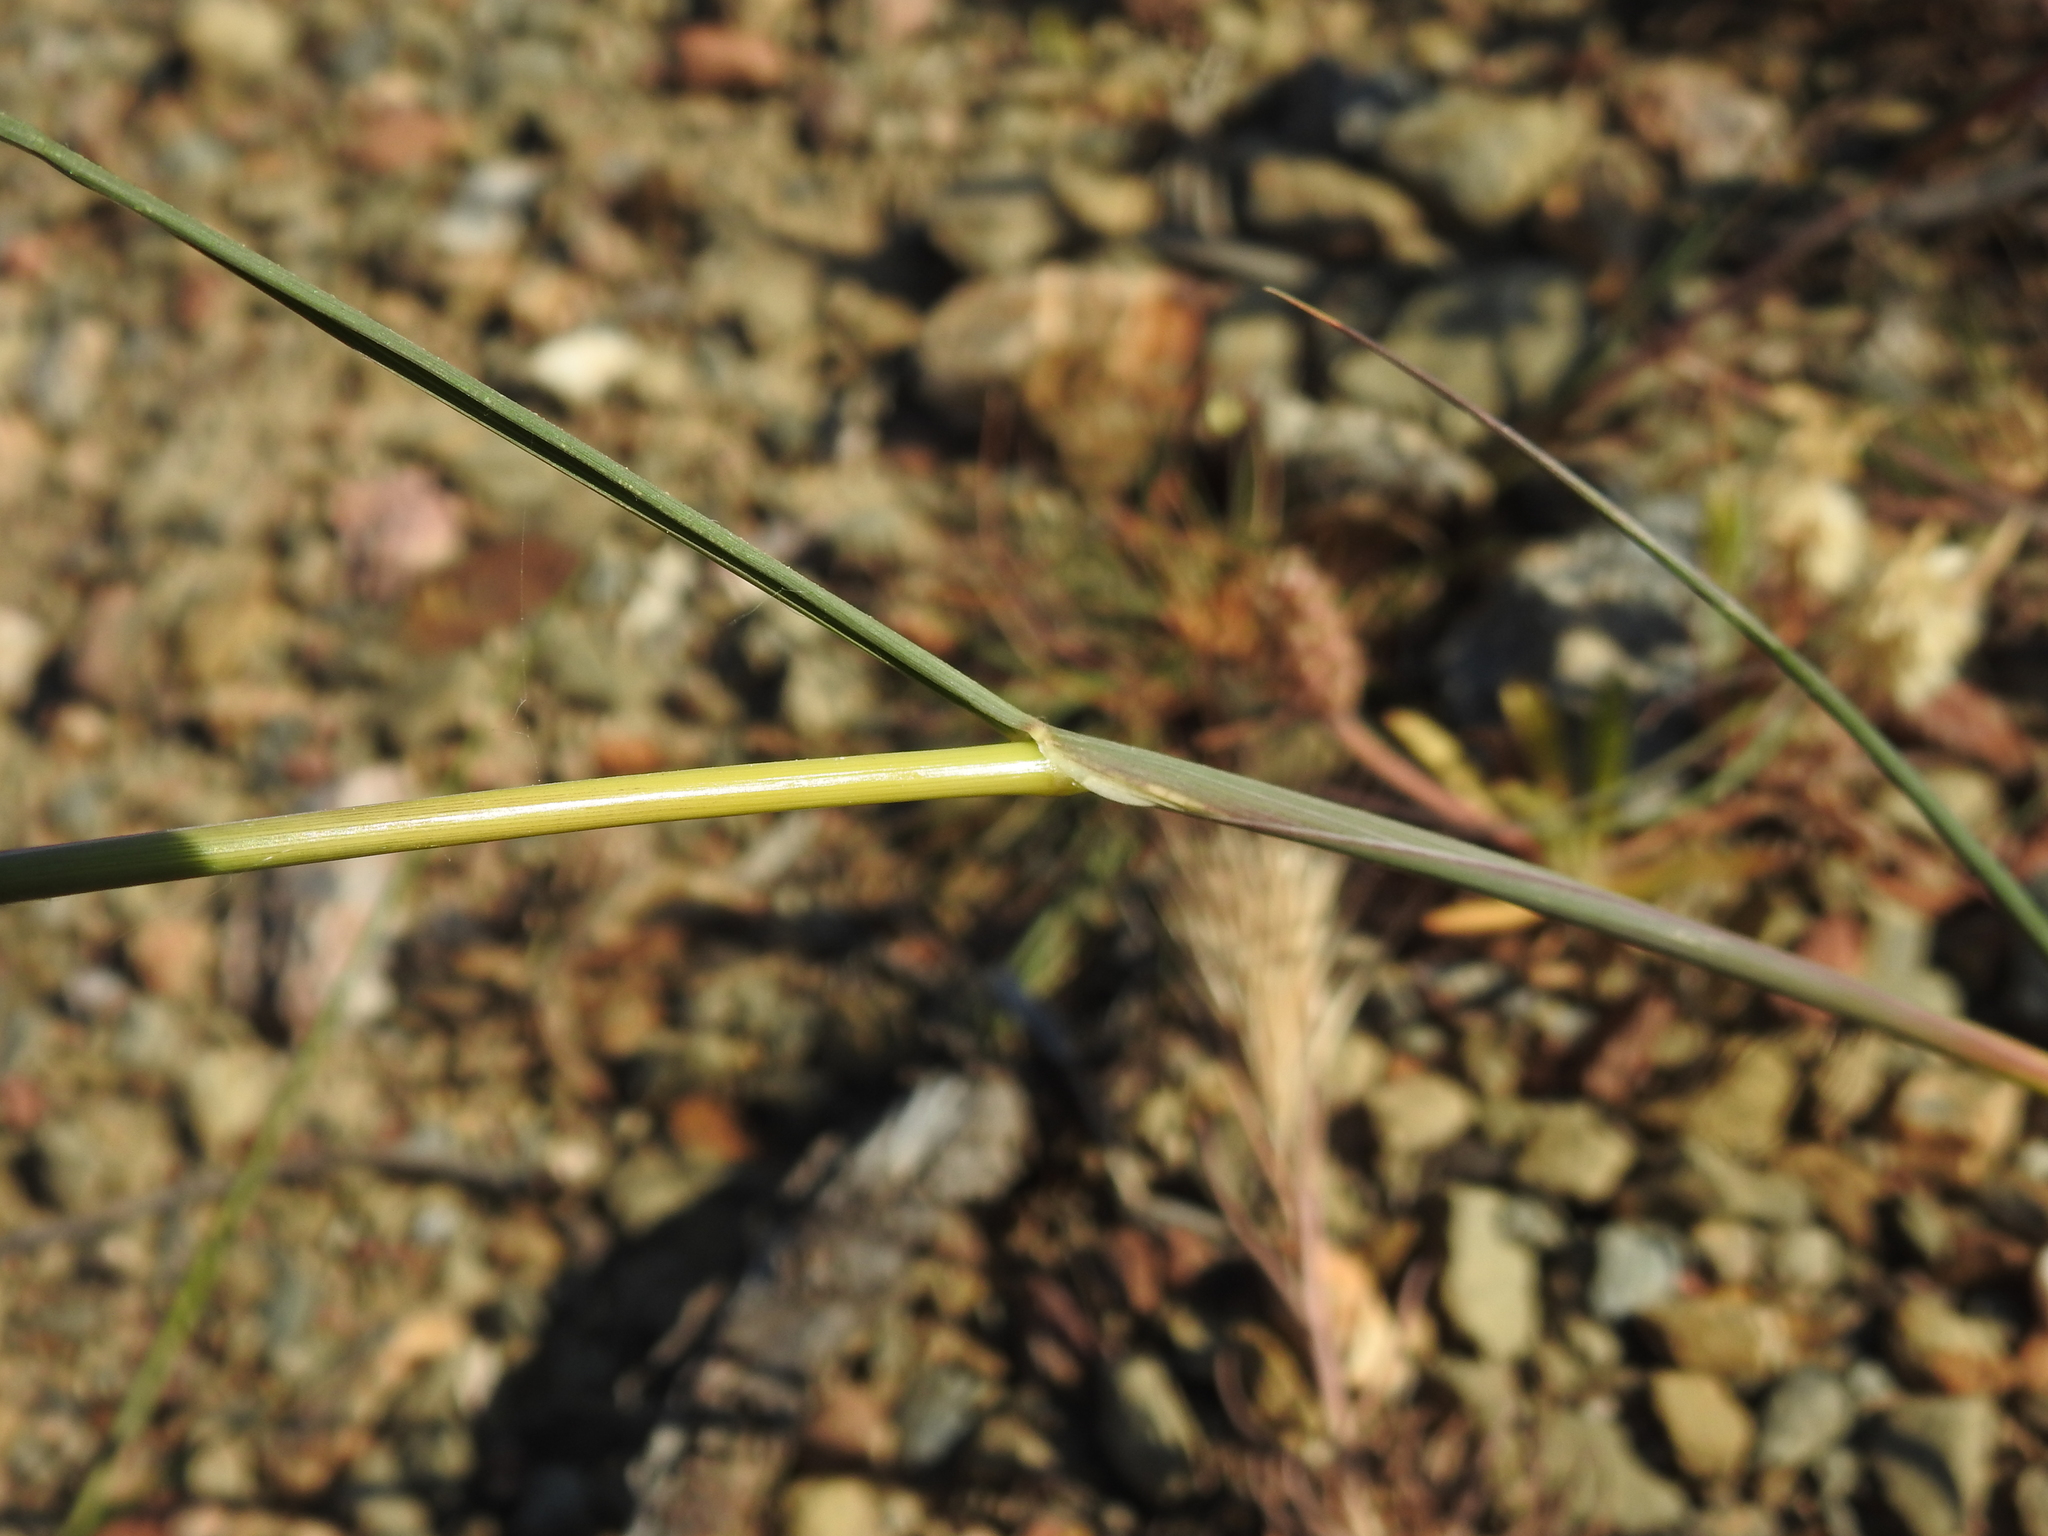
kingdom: Plantae
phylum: Tracheophyta
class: Liliopsida
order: Poales
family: Poaceae
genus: Stipellula
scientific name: Stipellula capensis
